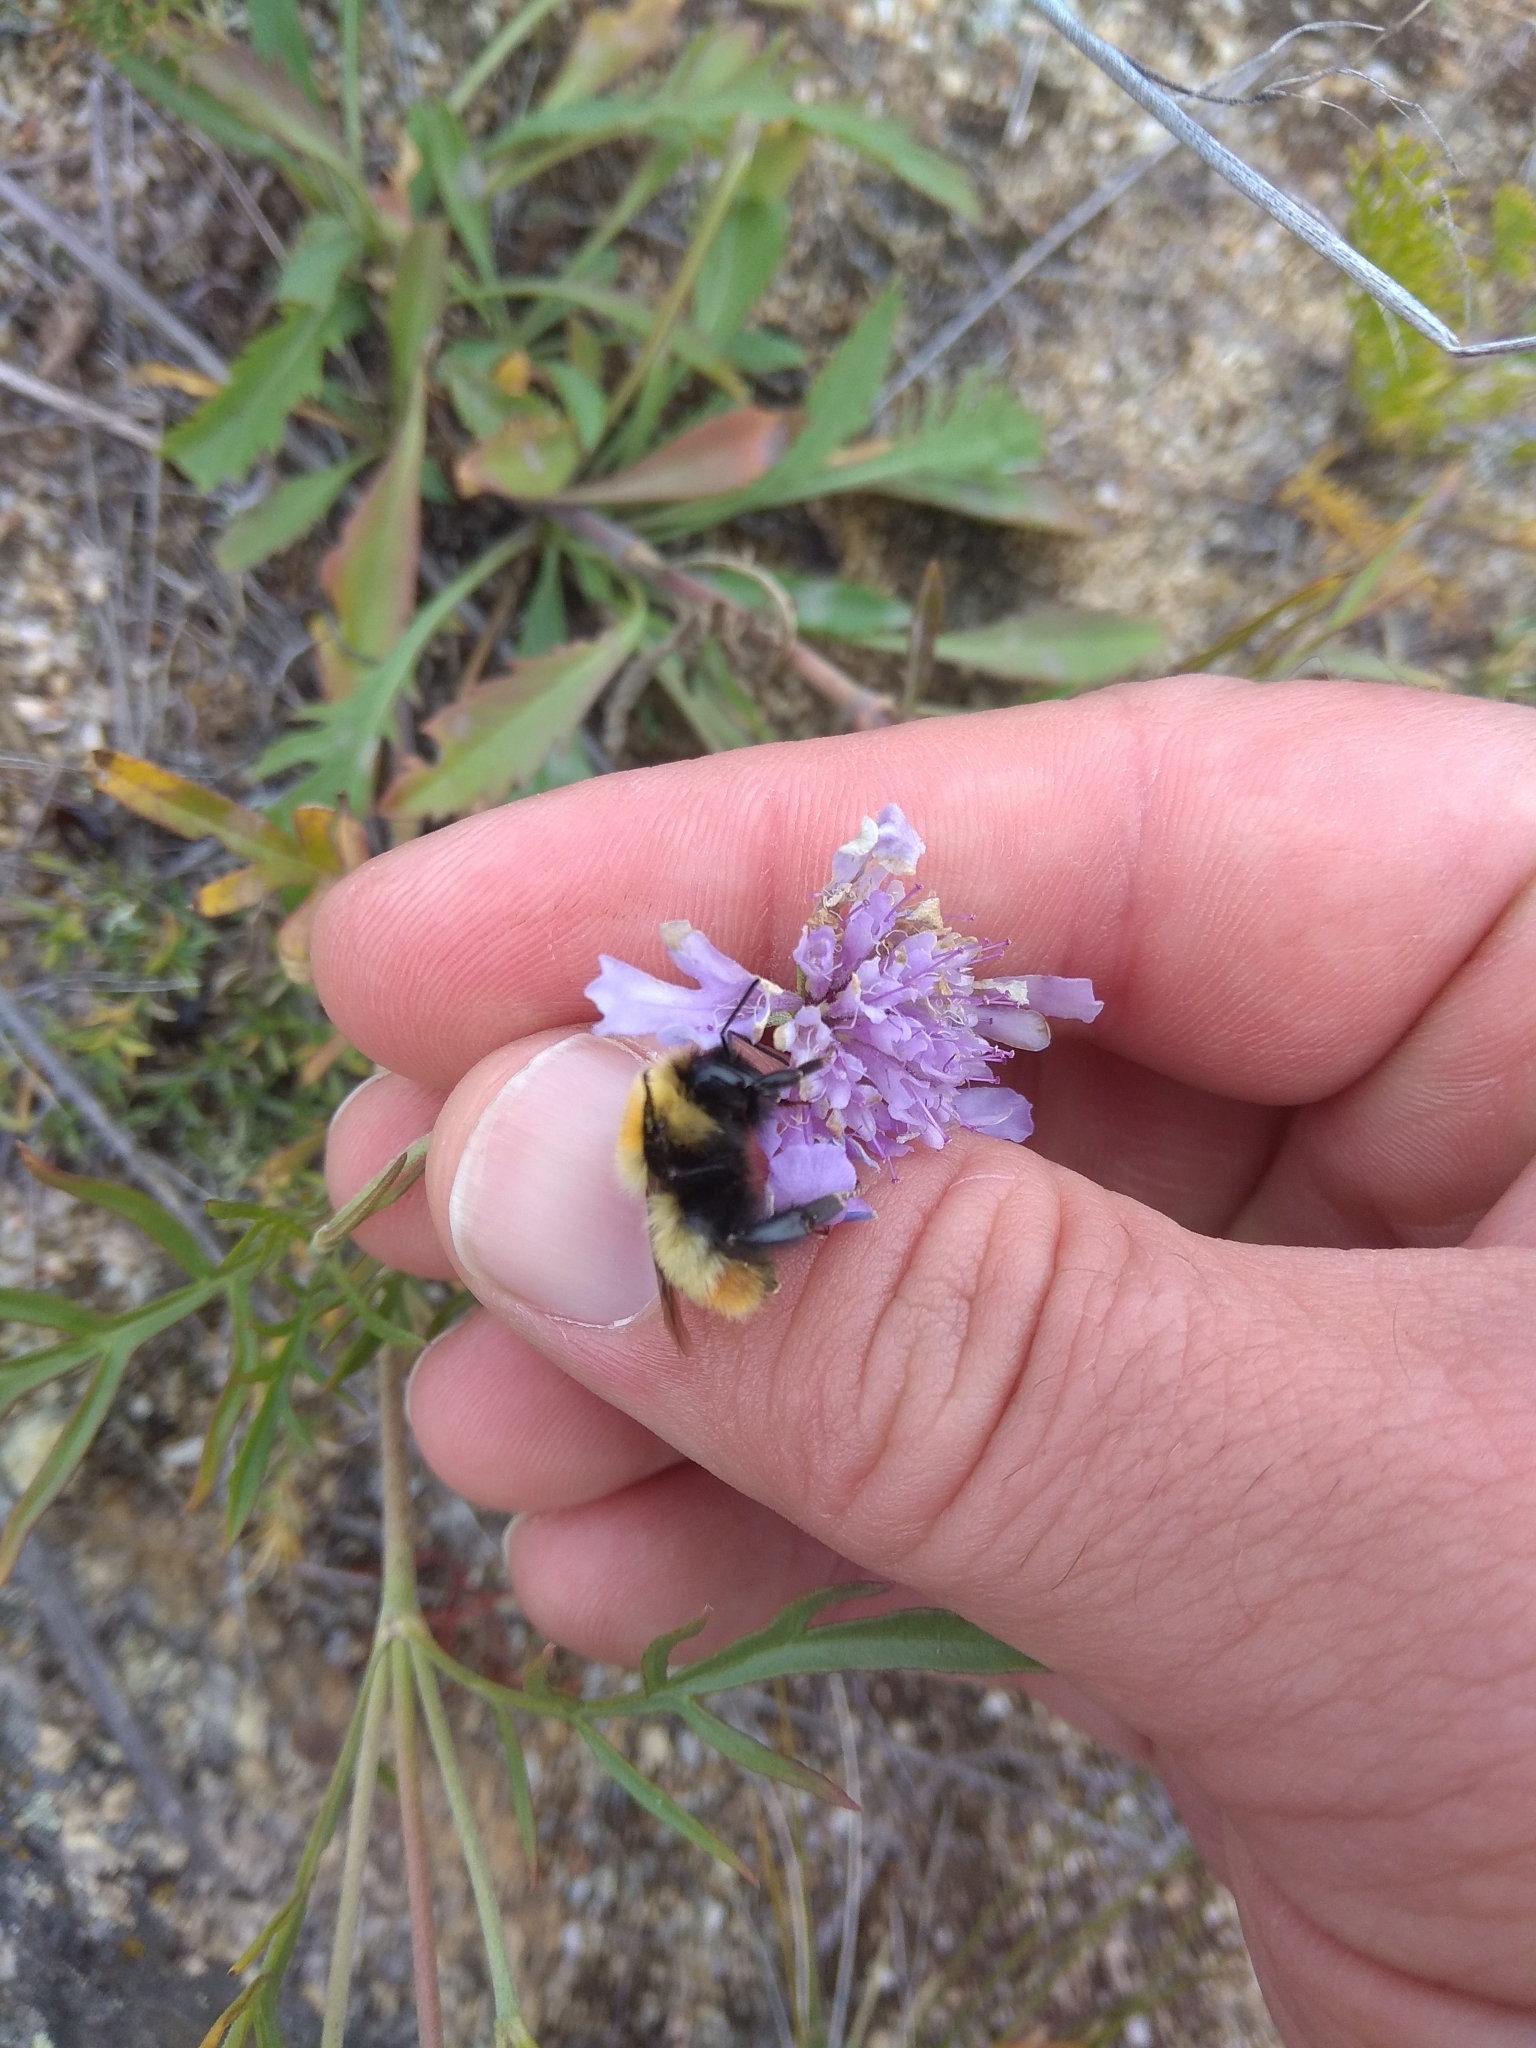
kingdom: Animalia
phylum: Arthropoda
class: Insecta
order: Hymenoptera
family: Apidae
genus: Bombus
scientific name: Bombus sibiricus
